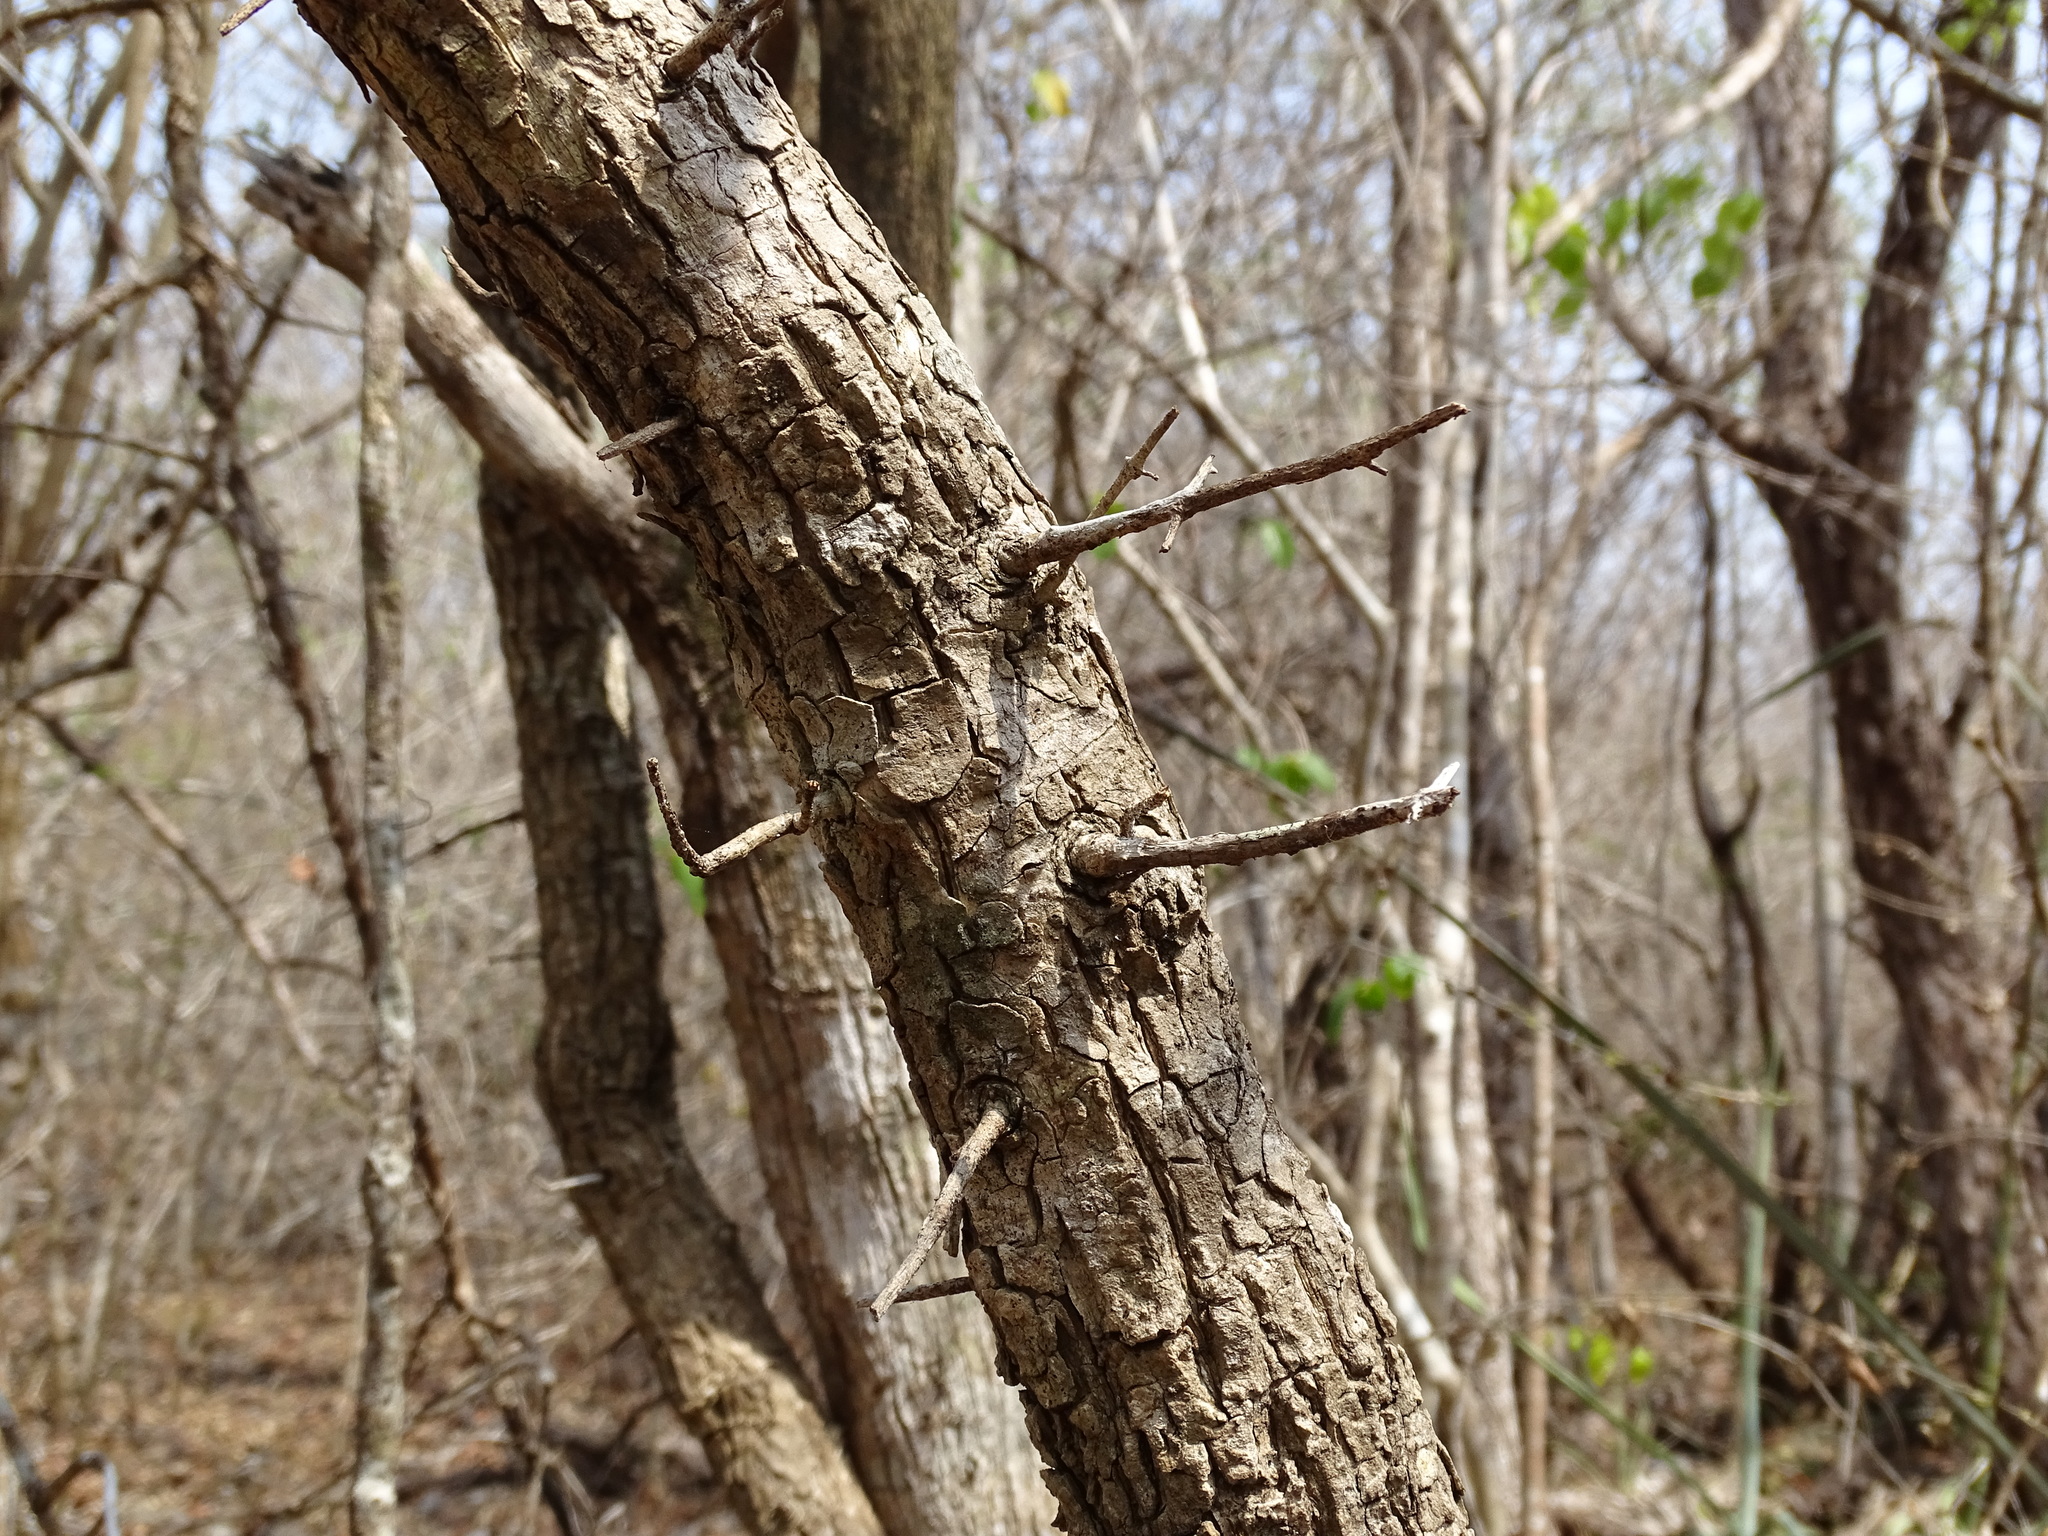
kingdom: Plantae
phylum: Tracheophyta
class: Magnoliopsida
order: Gentianales
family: Rubiaceae
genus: Hintonia
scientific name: Hintonia octomera
